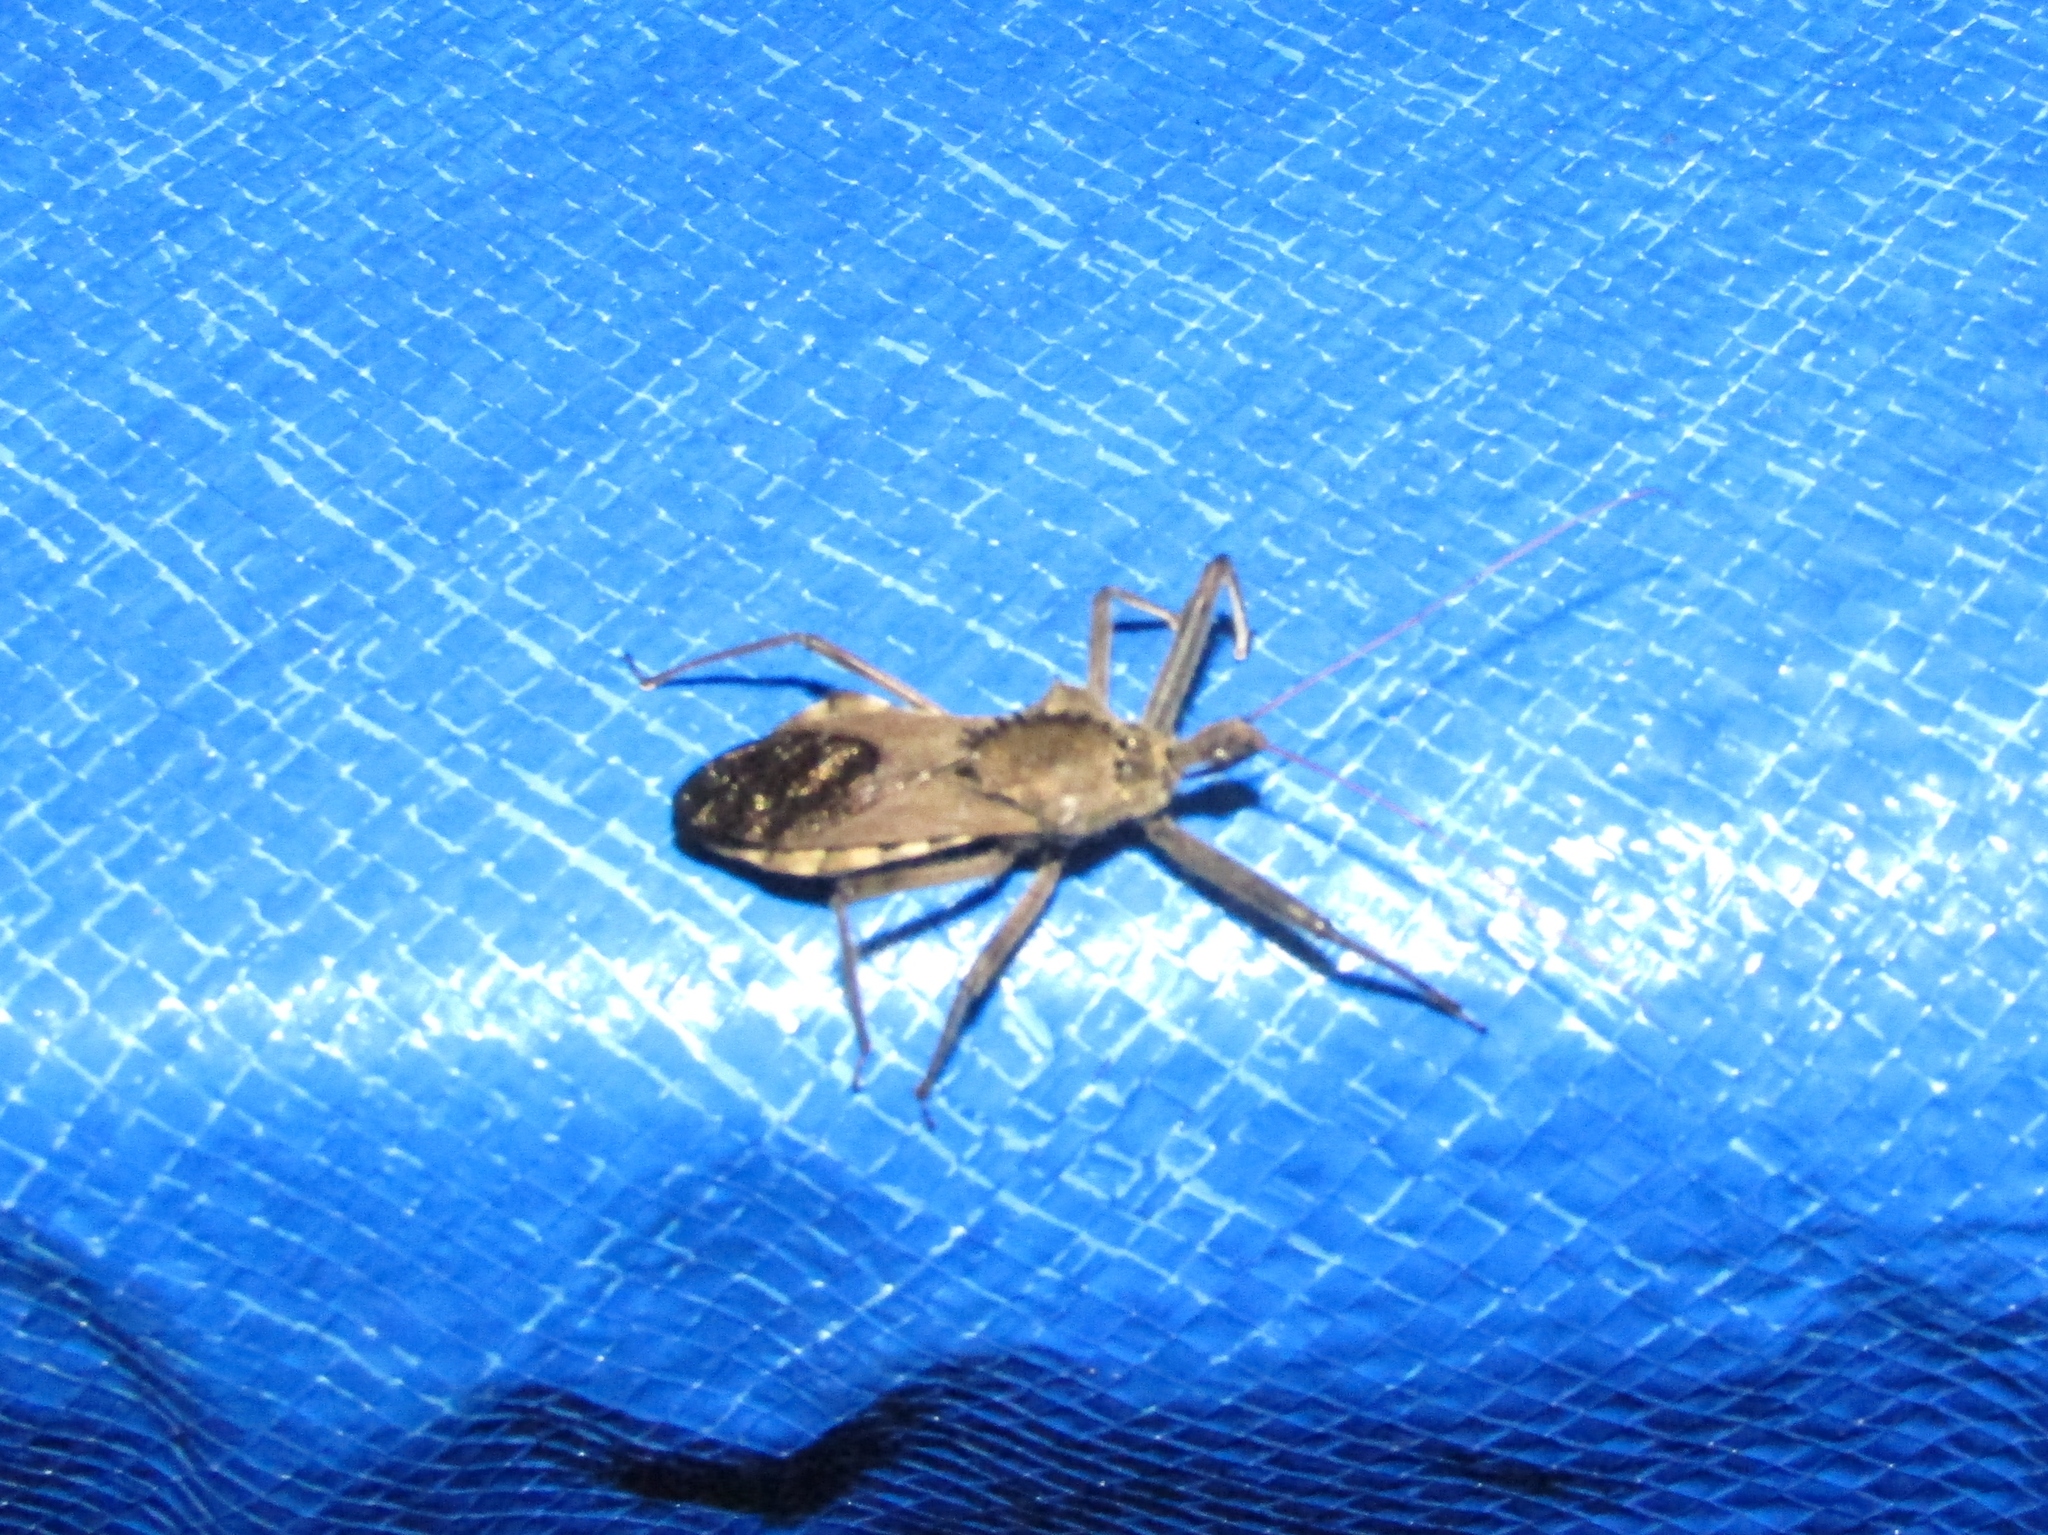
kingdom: Animalia
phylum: Arthropoda
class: Insecta
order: Hemiptera
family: Reduviidae
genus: Arilus
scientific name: Arilus cristatus
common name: North american wheel bug
